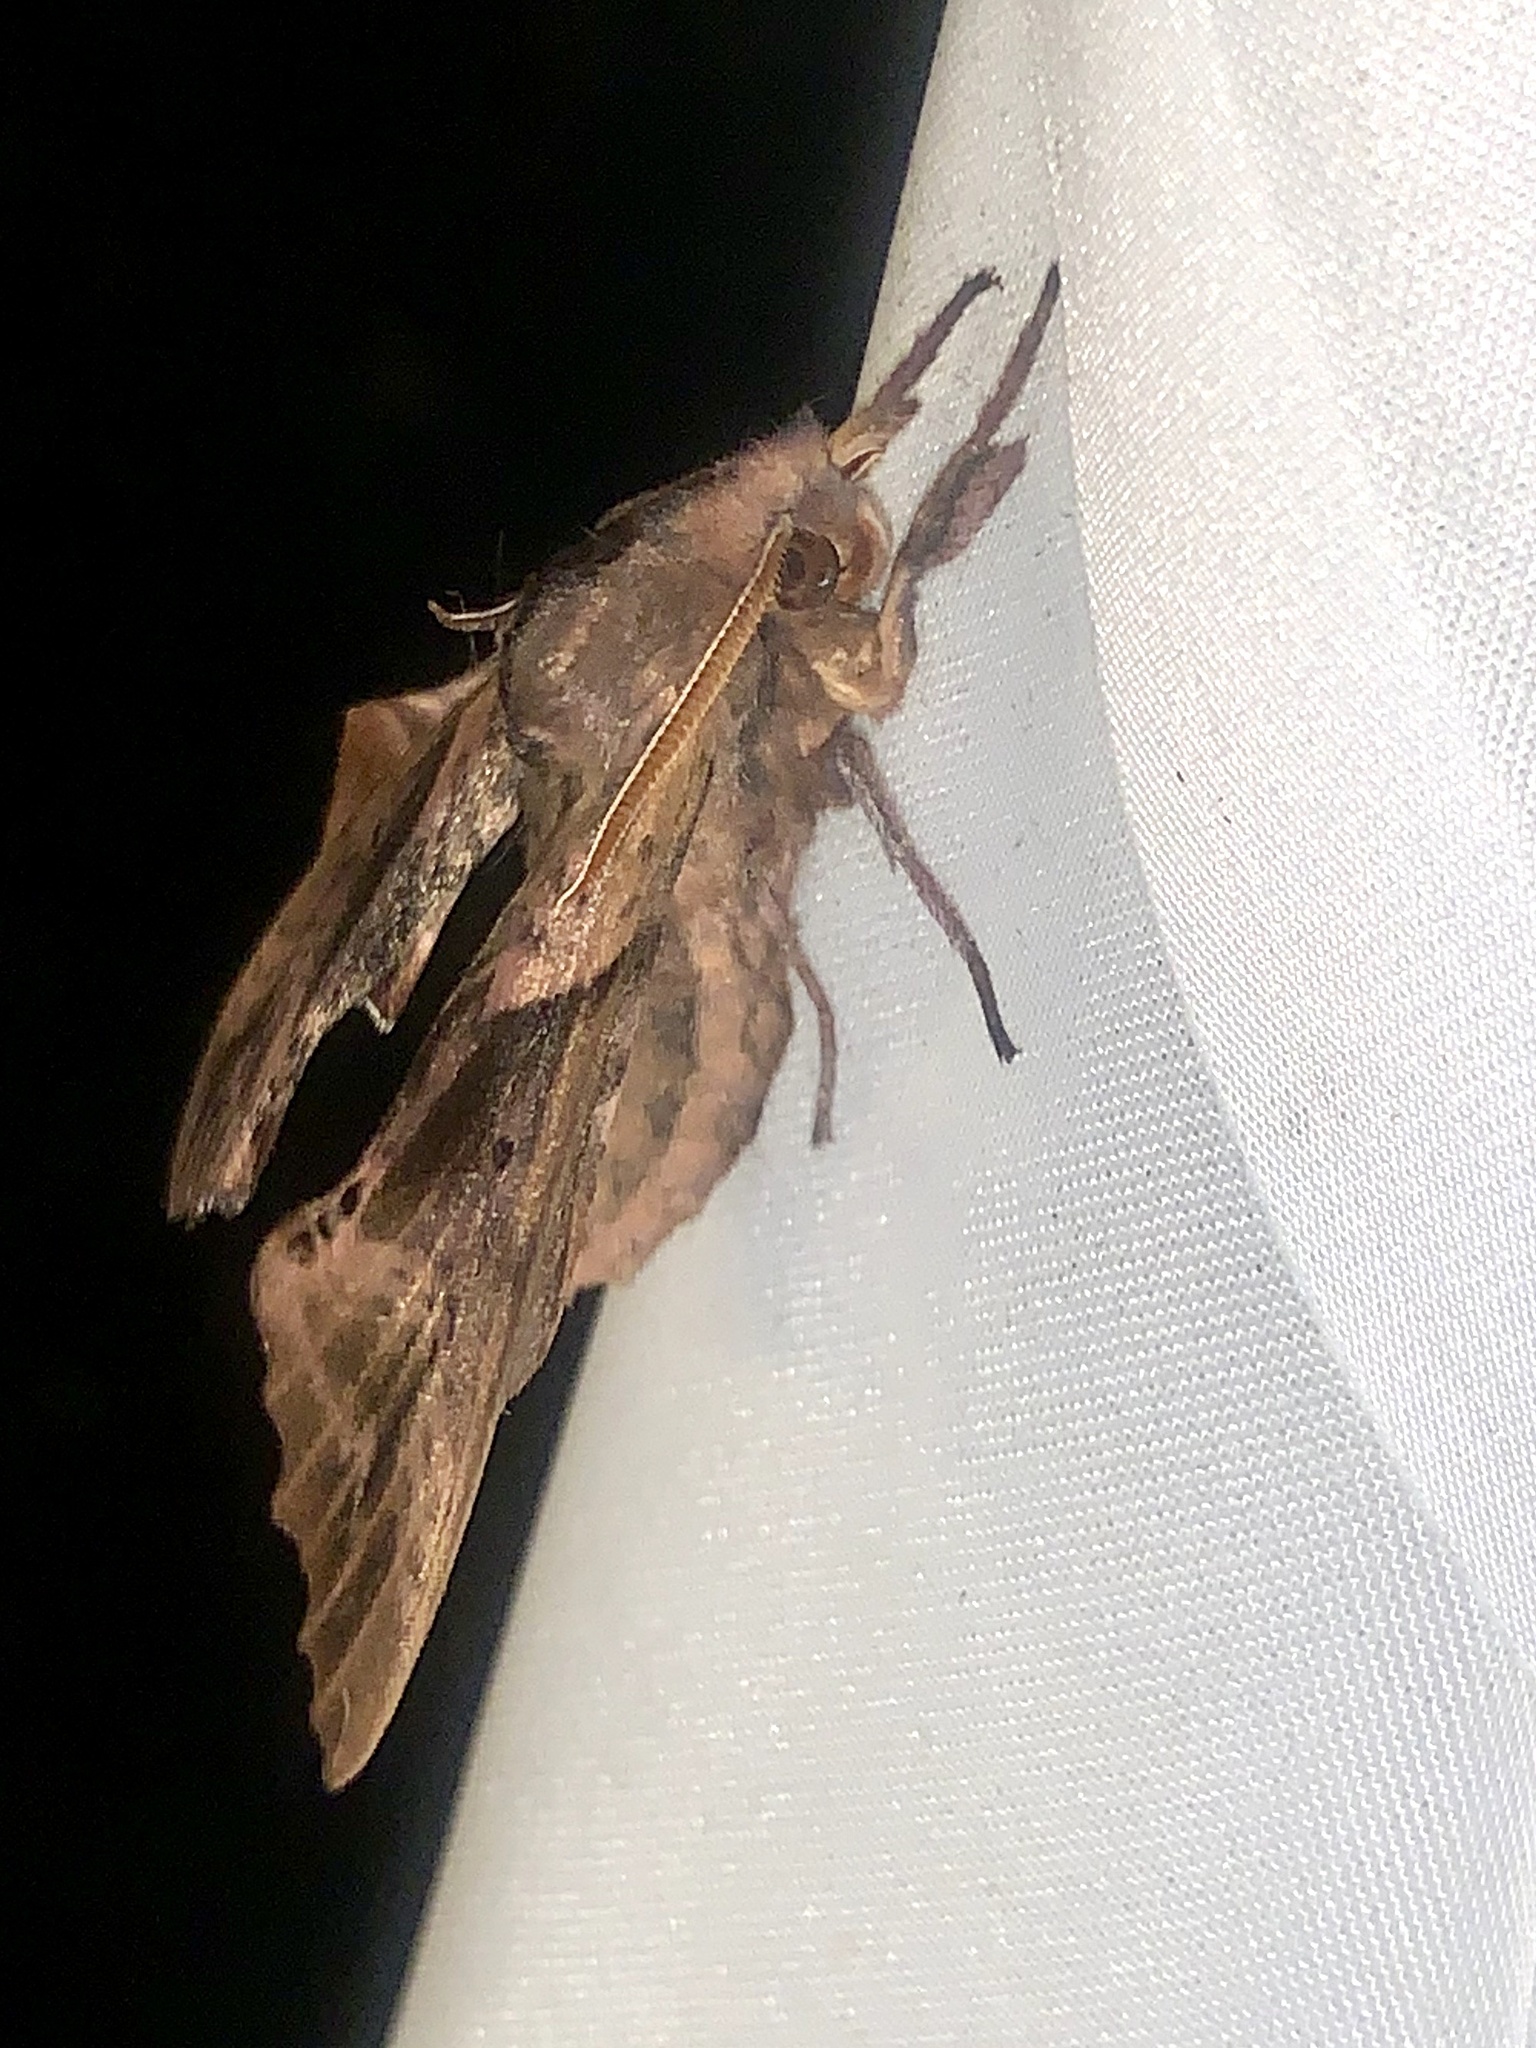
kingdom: Animalia
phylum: Arthropoda
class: Insecta
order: Lepidoptera
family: Sphingidae
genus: Paonias
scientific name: Paonias excaecata
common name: Blind-eyed sphinx
